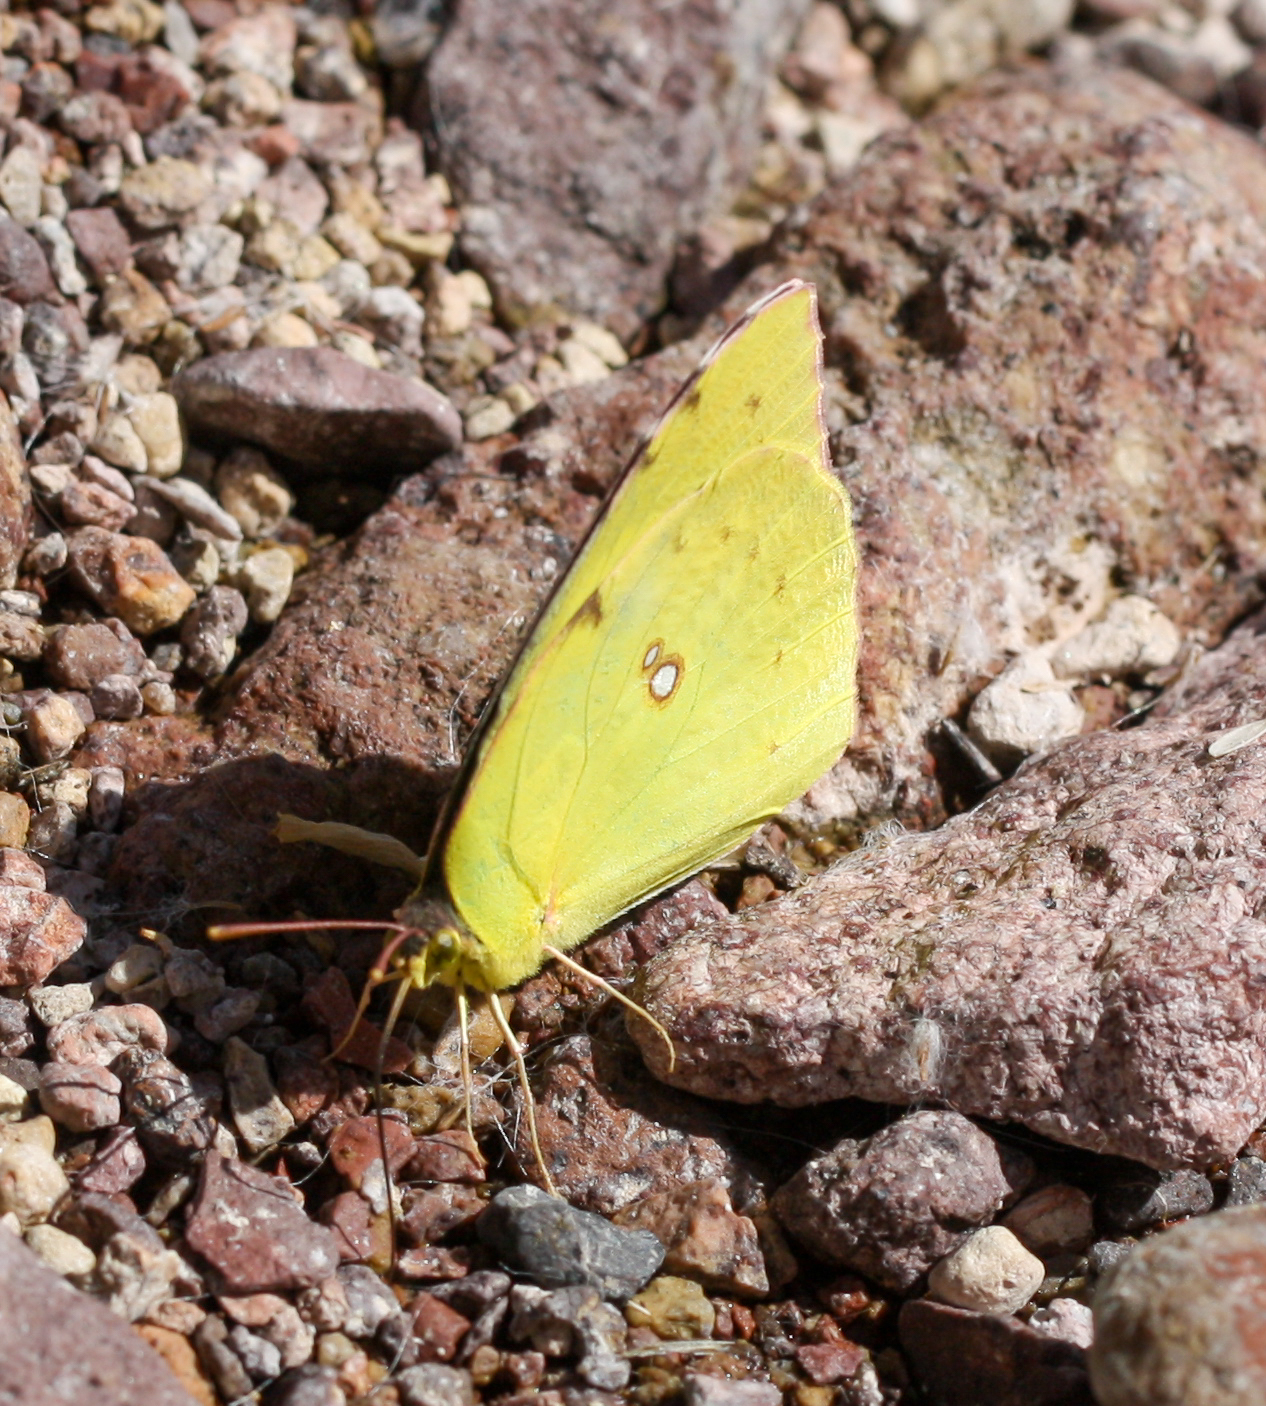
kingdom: Animalia
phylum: Arthropoda
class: Insecta
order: Lepidoptera
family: Pieridae
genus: Zerene
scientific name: Zerene cesonia
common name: Southern dogface
